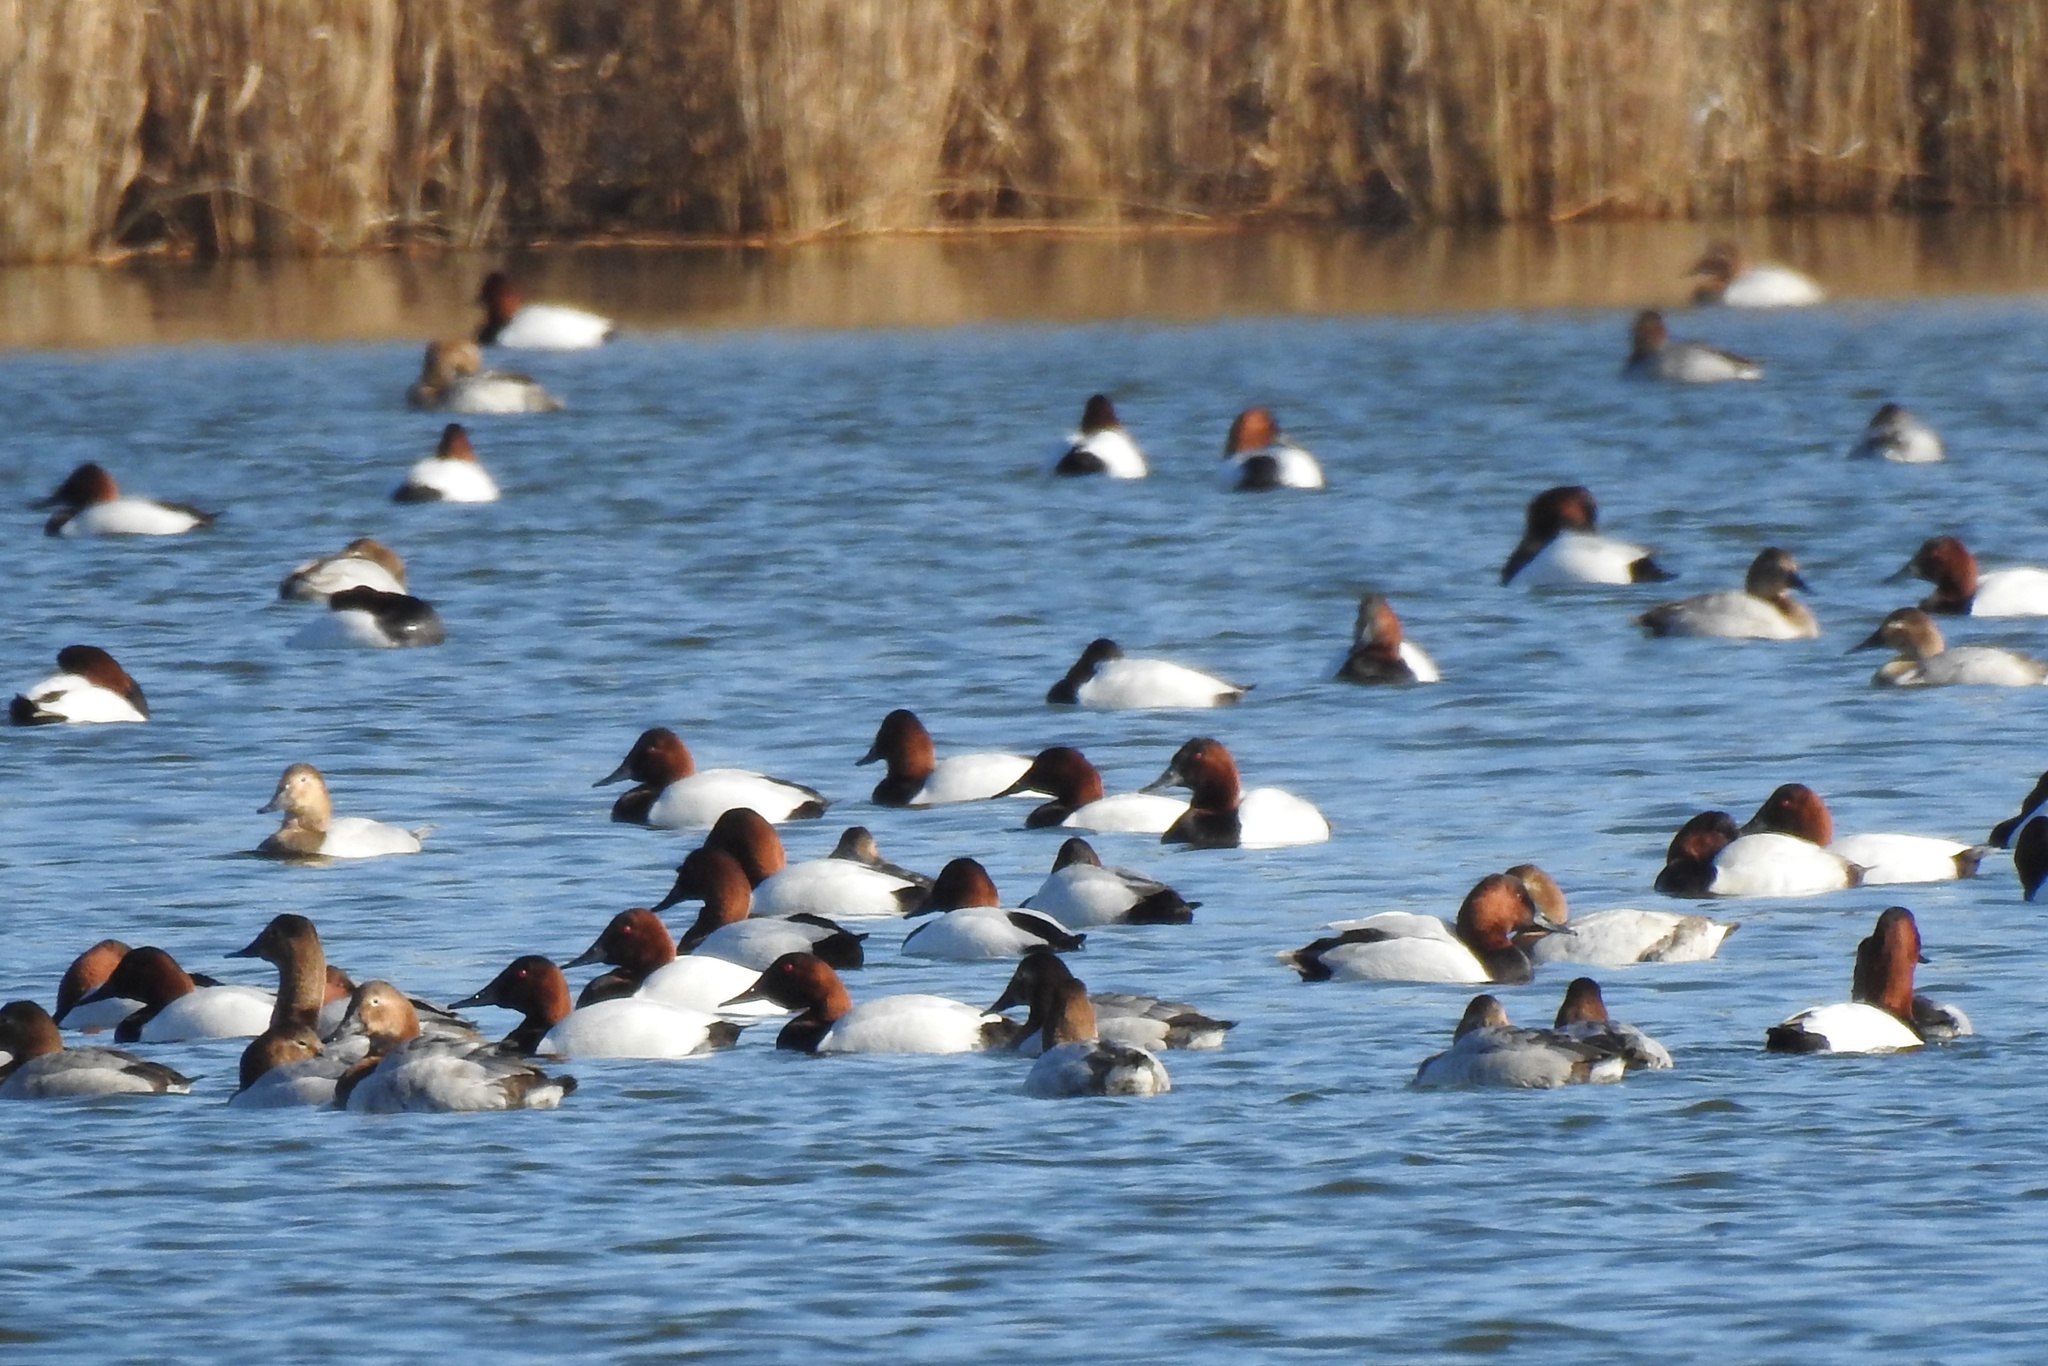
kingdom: Animalia
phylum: Chordata
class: Aves
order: Anseriformes
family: Anatidae
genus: Aythya
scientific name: Aythya valisineria
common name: Canvasback
